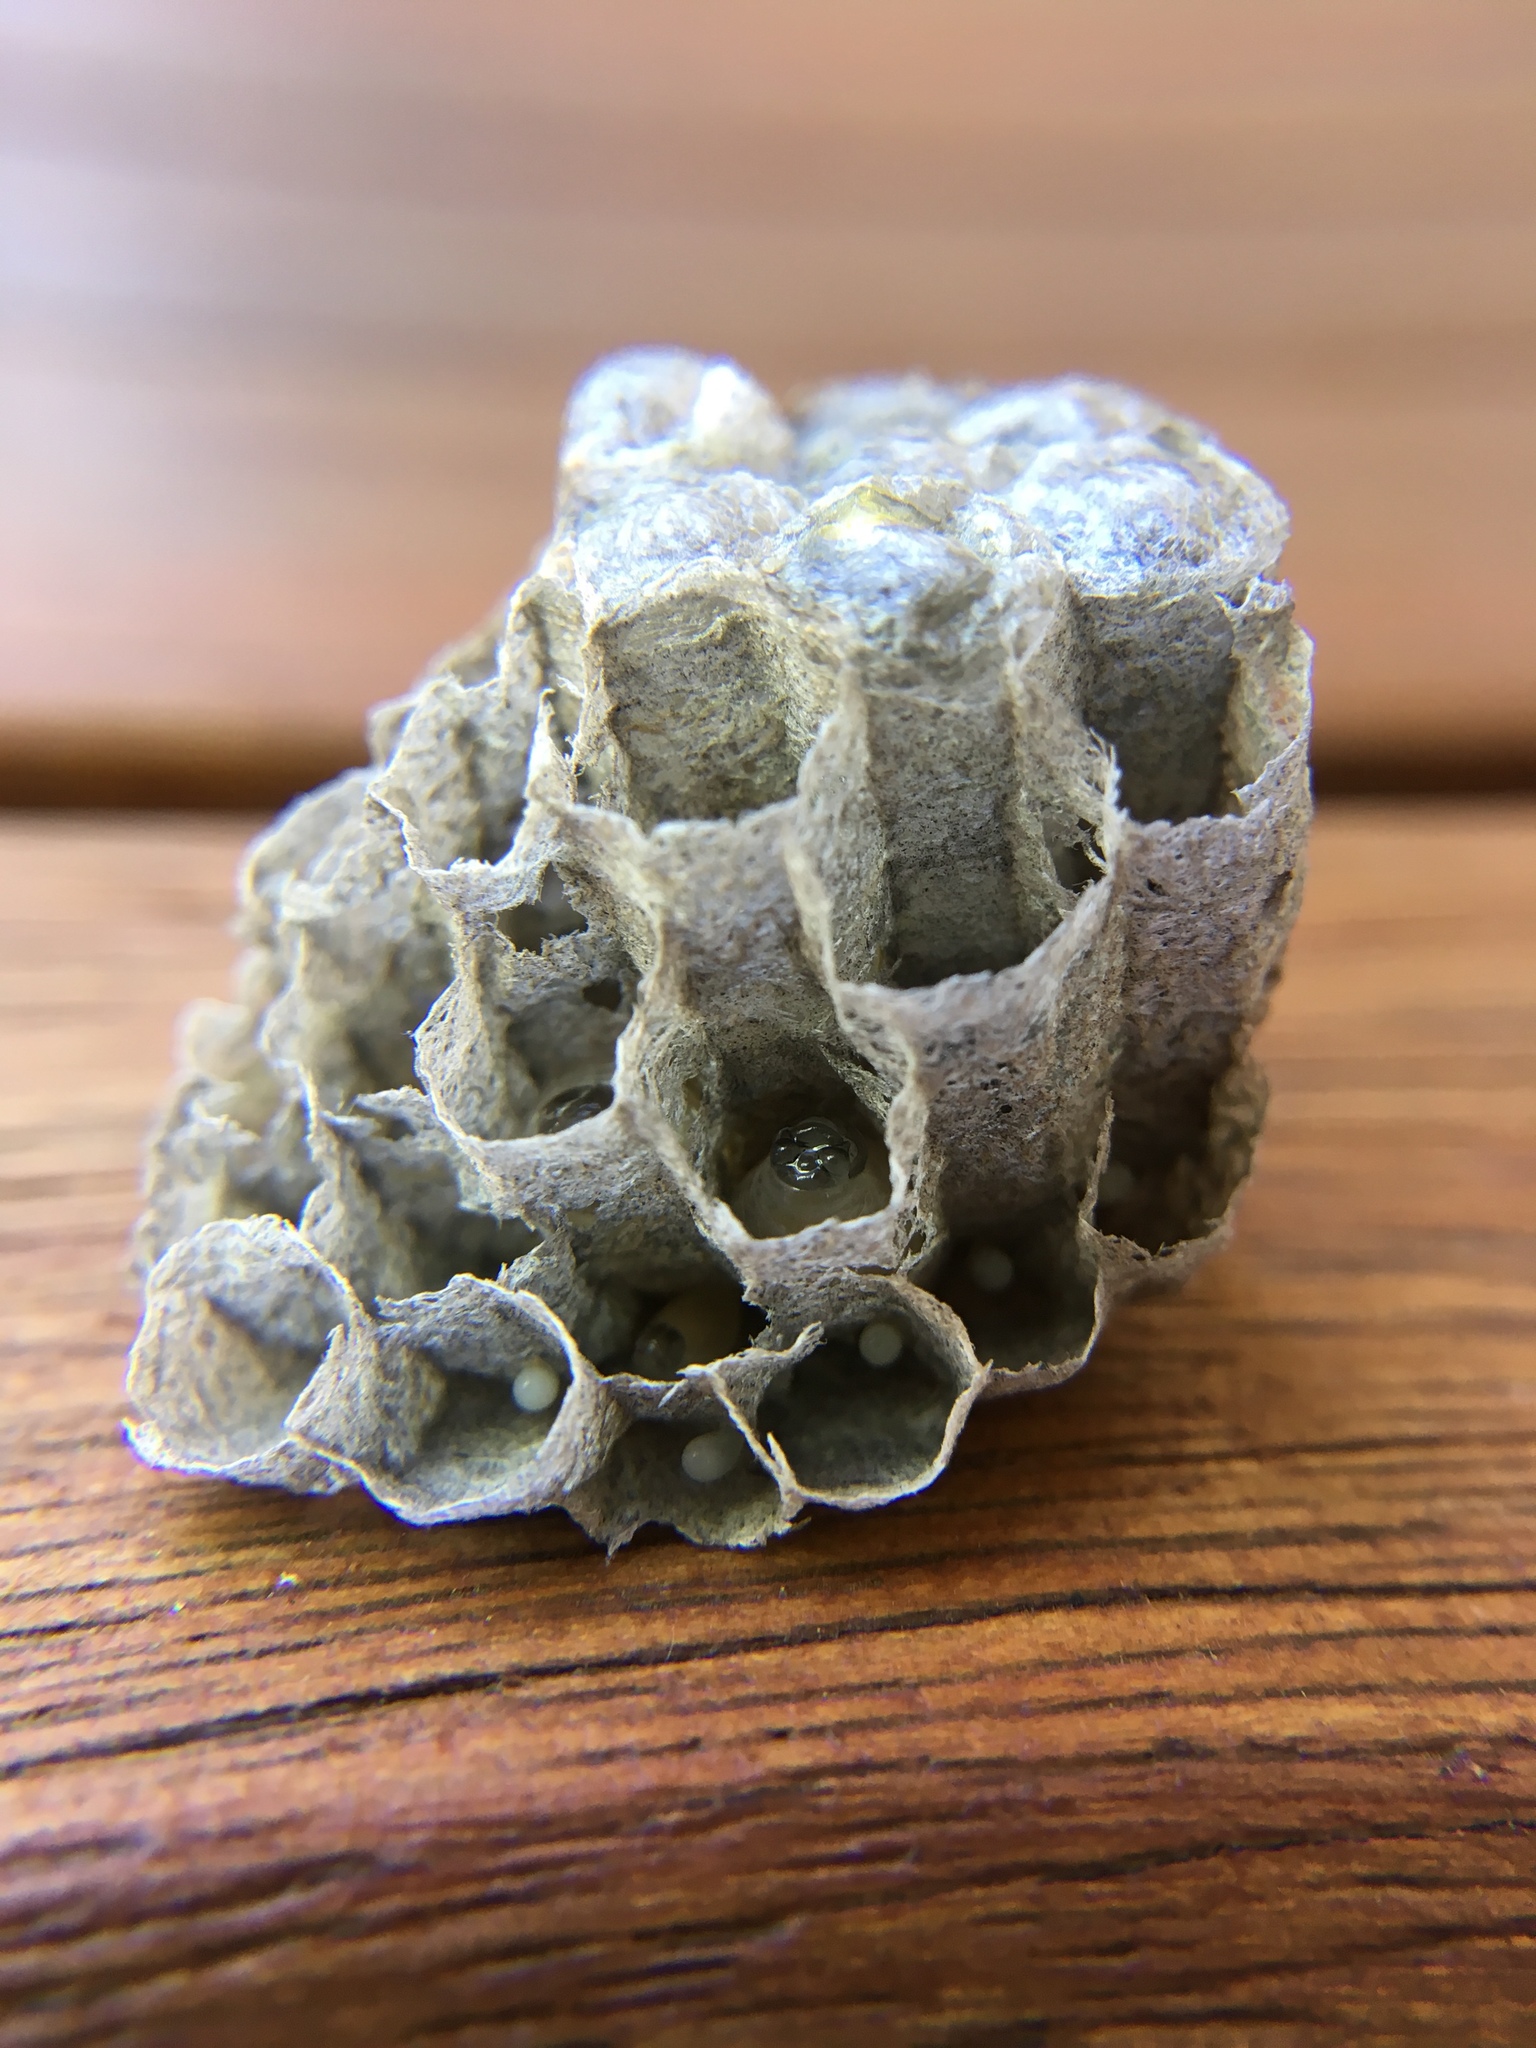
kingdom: Animalia
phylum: Arthropoda
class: Insecta
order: Hymenoptera
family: Eumenidae
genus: Polistes
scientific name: Polistes
